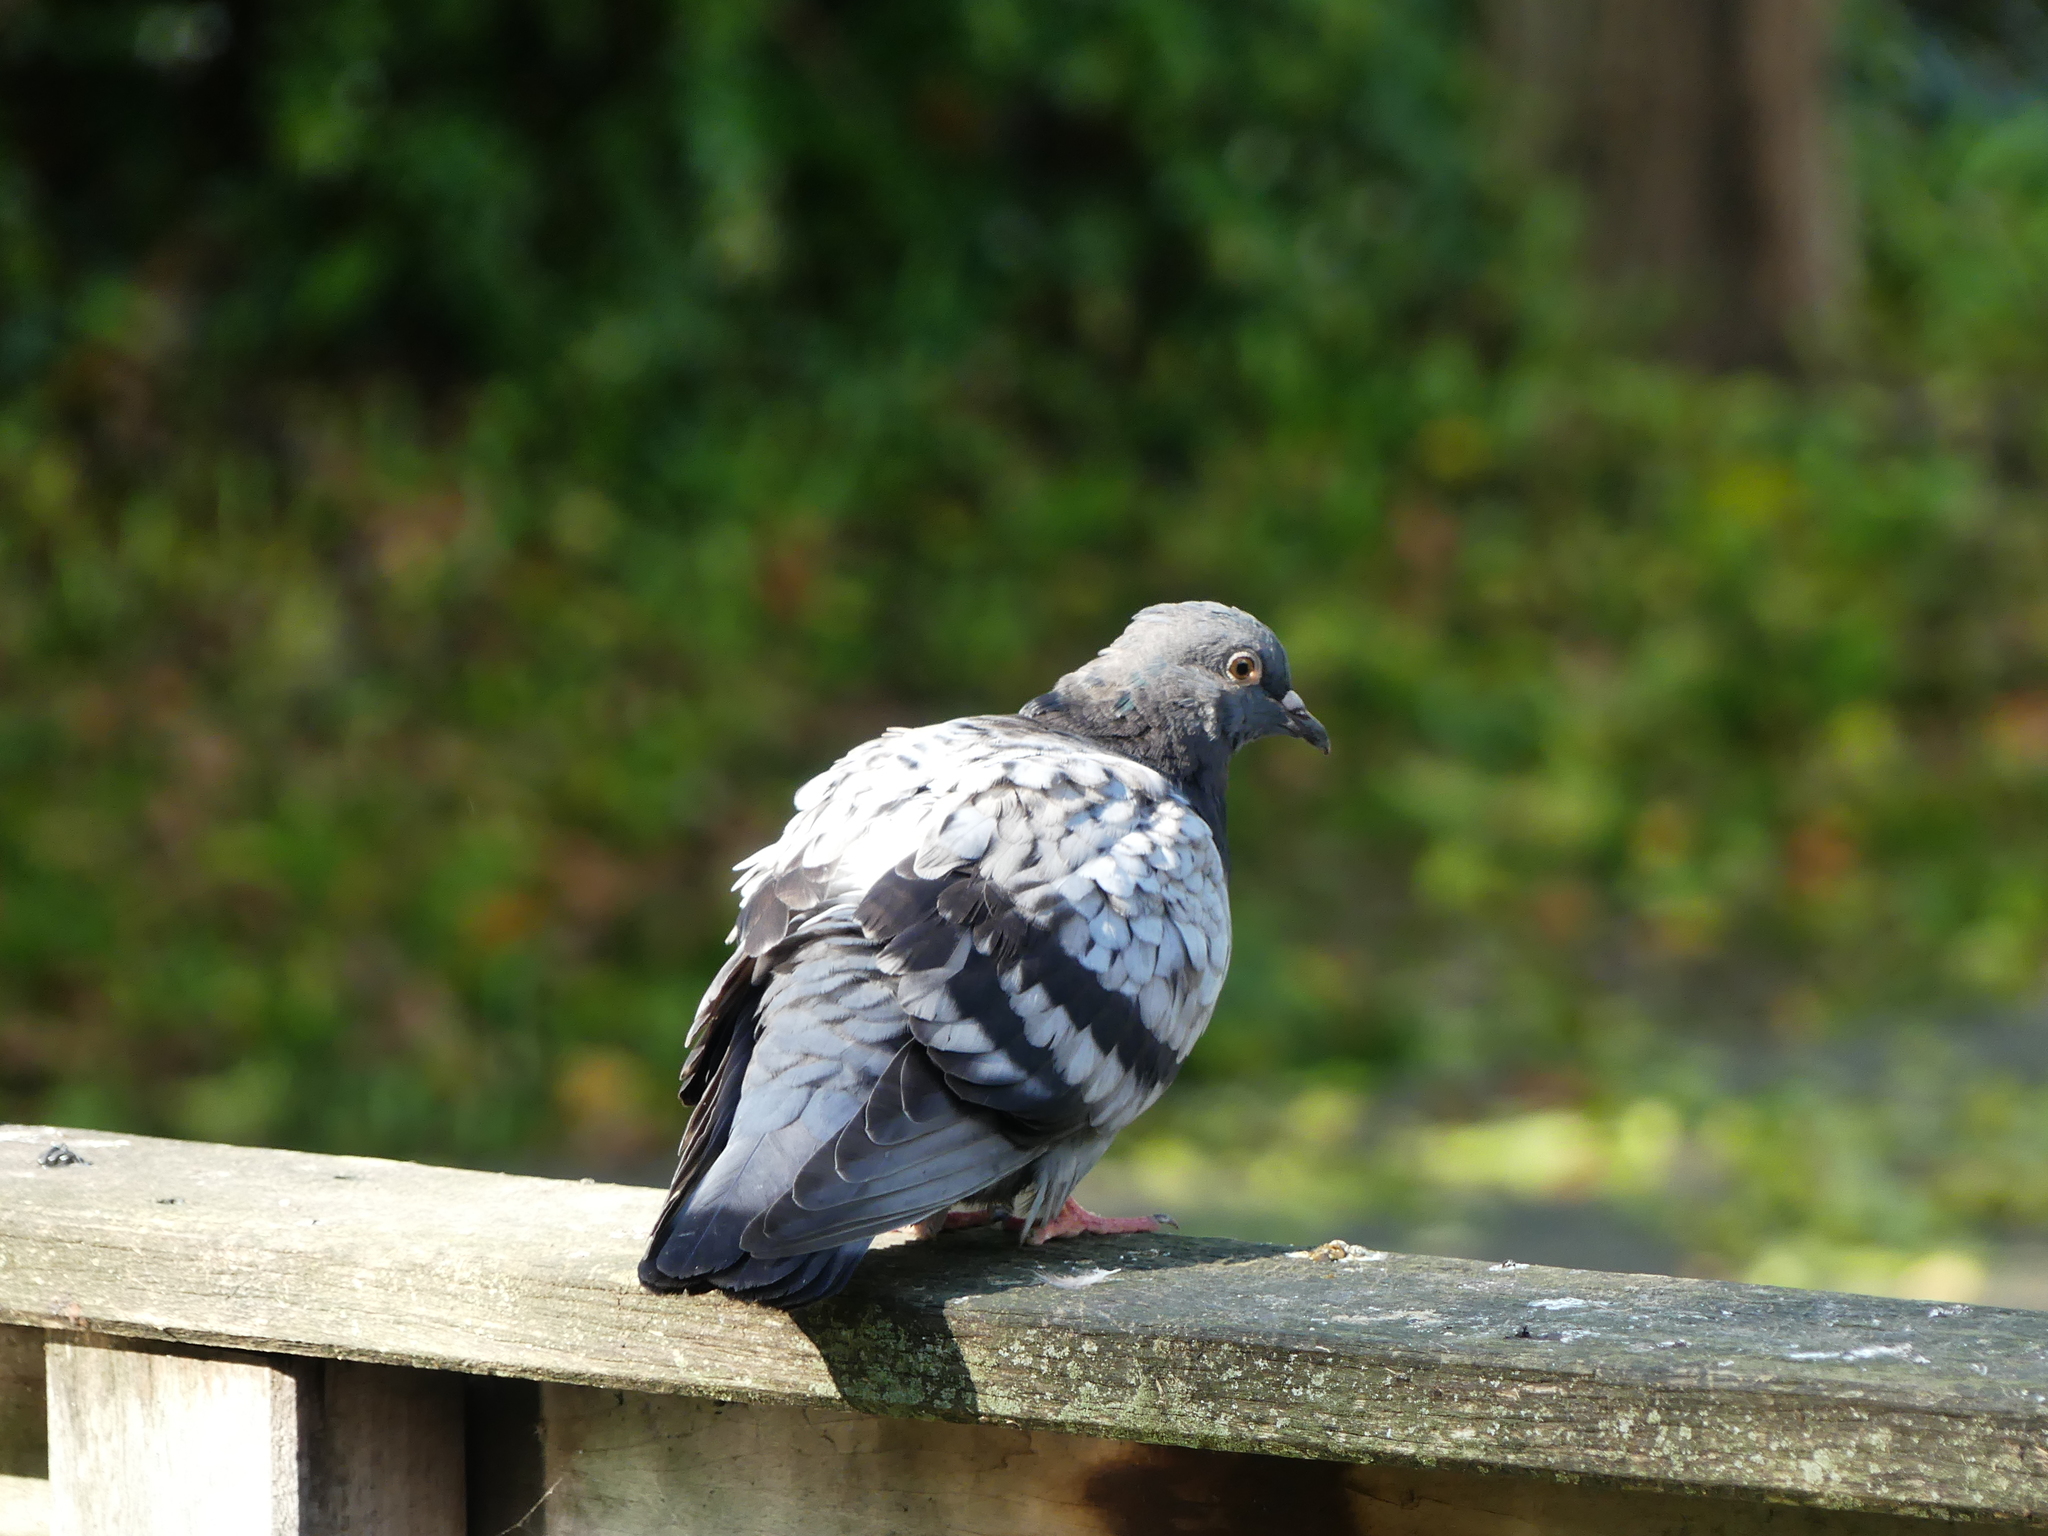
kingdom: Animalia
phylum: Chordata
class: Aves
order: Columbiformes
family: Columbidae
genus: Columba
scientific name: Columba livia
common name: Rock pigeon
